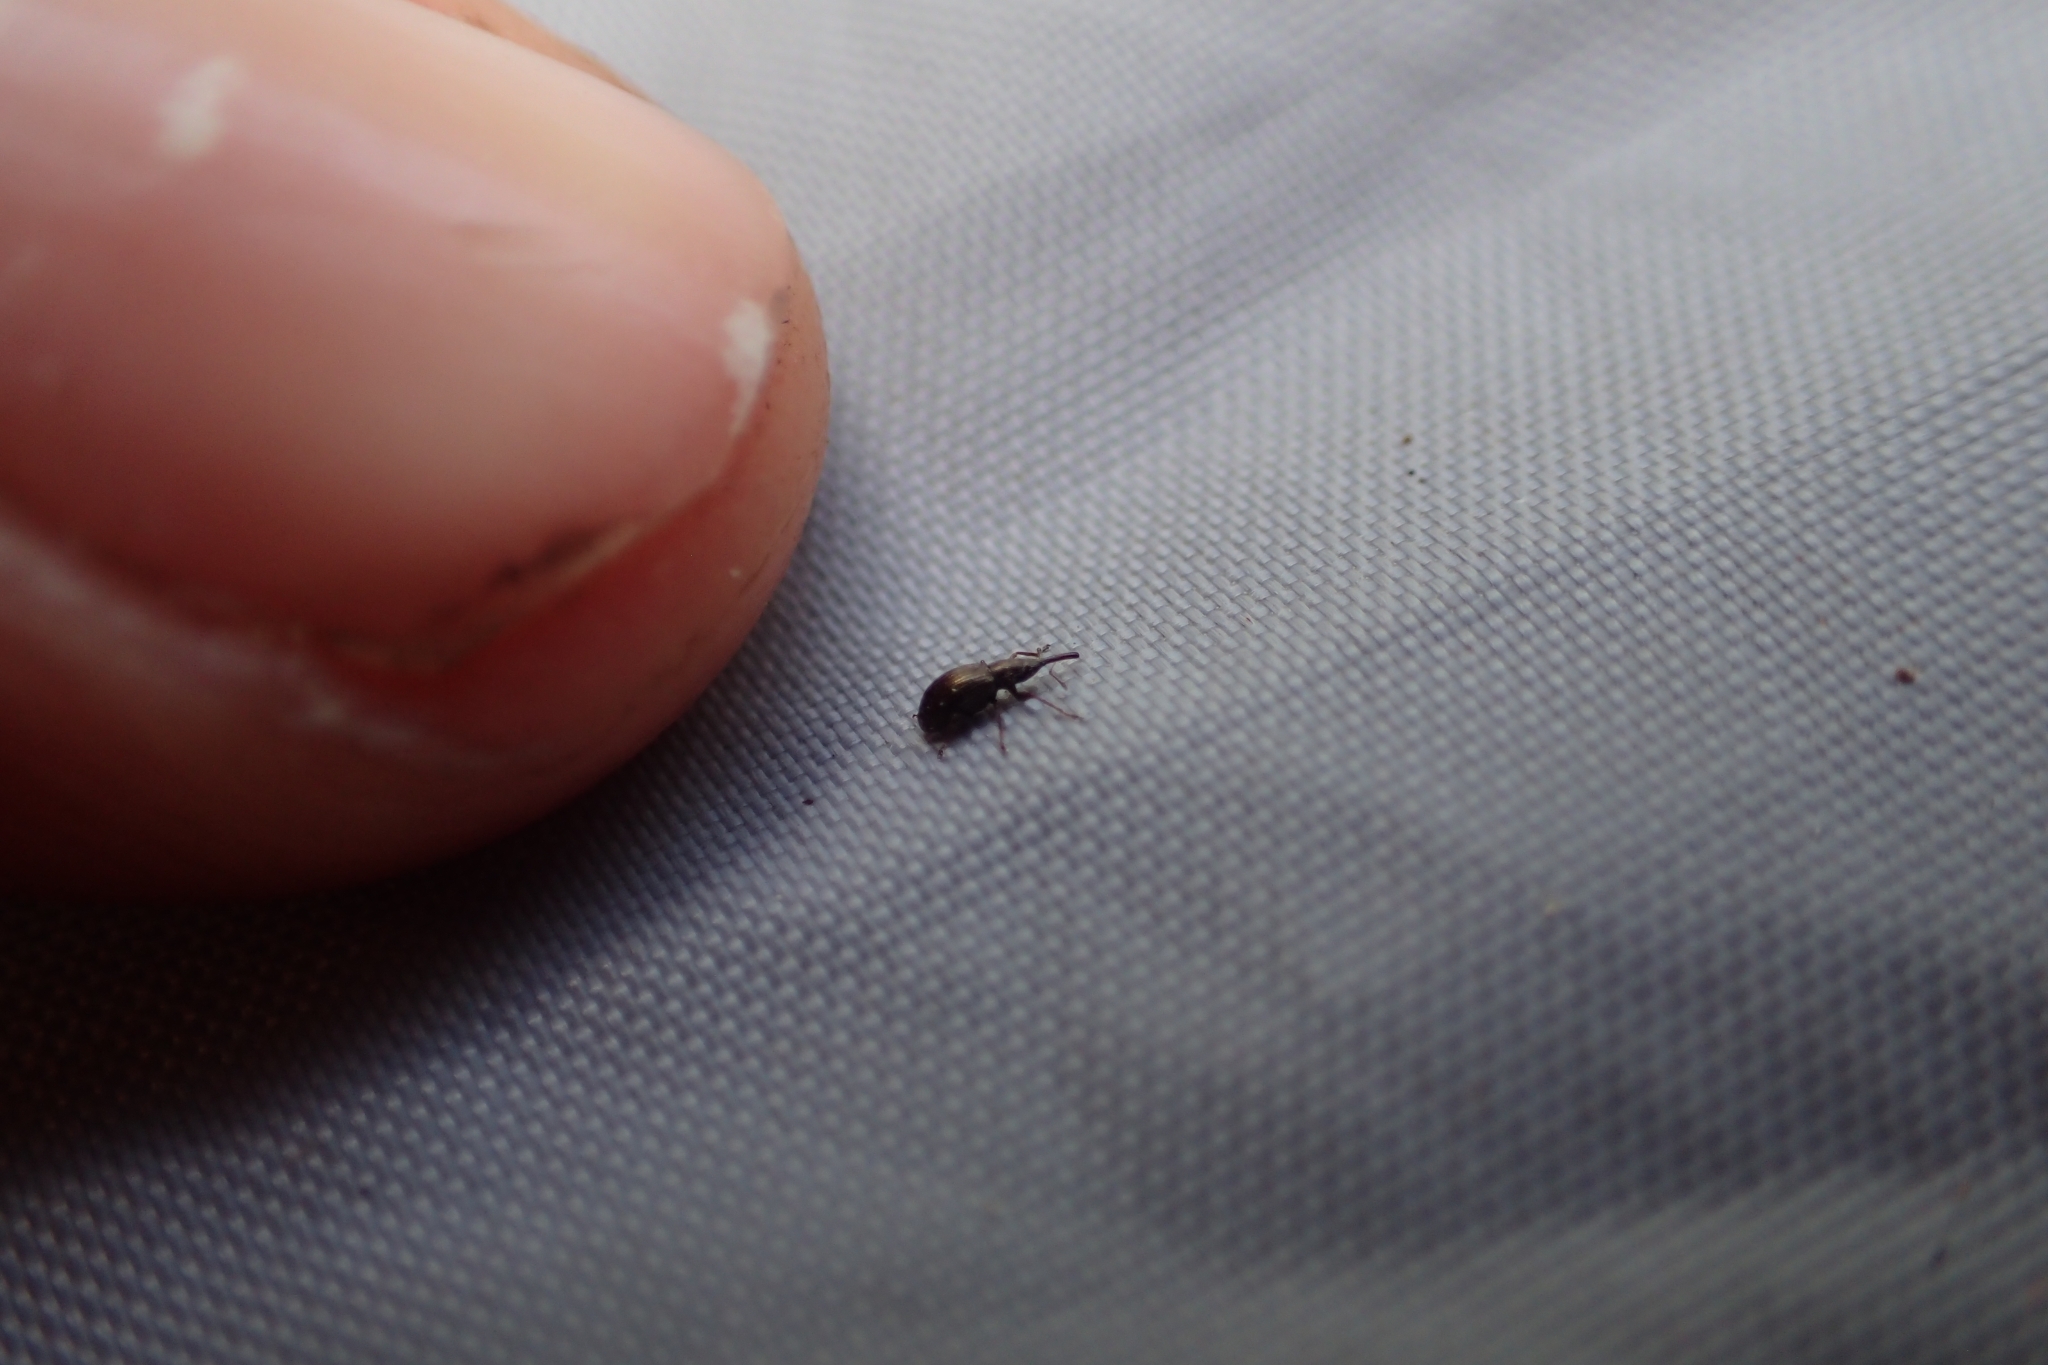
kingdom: Animalia
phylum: Arthropoda
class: Insecta
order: Coleoptera
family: Brentidae
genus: Neocyba
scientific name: Neocyba metrosideros
